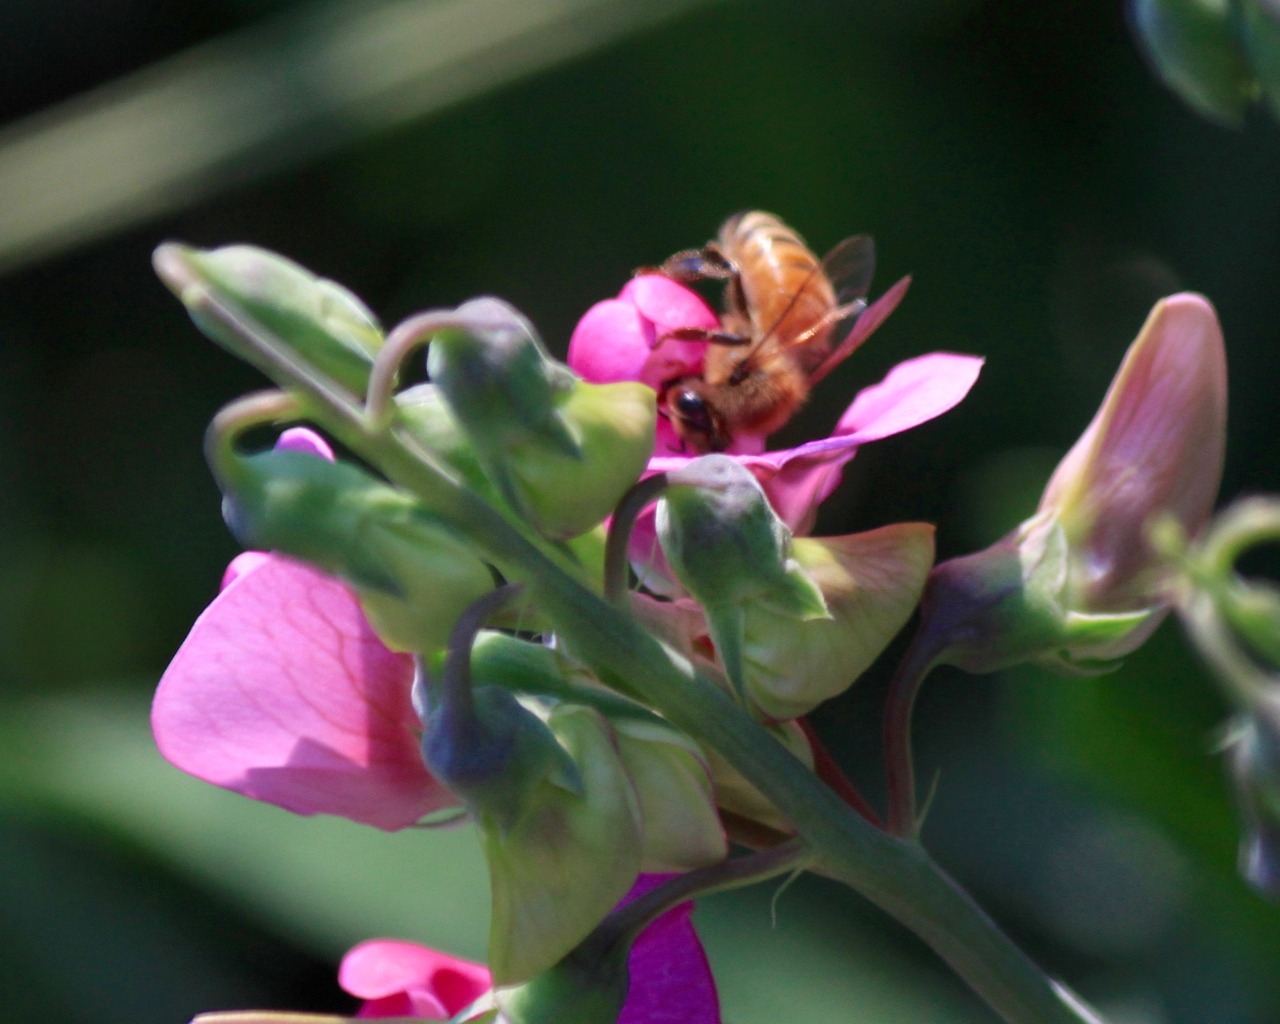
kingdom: Animalia
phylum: Arthropoda
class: Insecta
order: Hymenoptera
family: Apidae
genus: Apis
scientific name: Apis mellifera
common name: Honey bee
